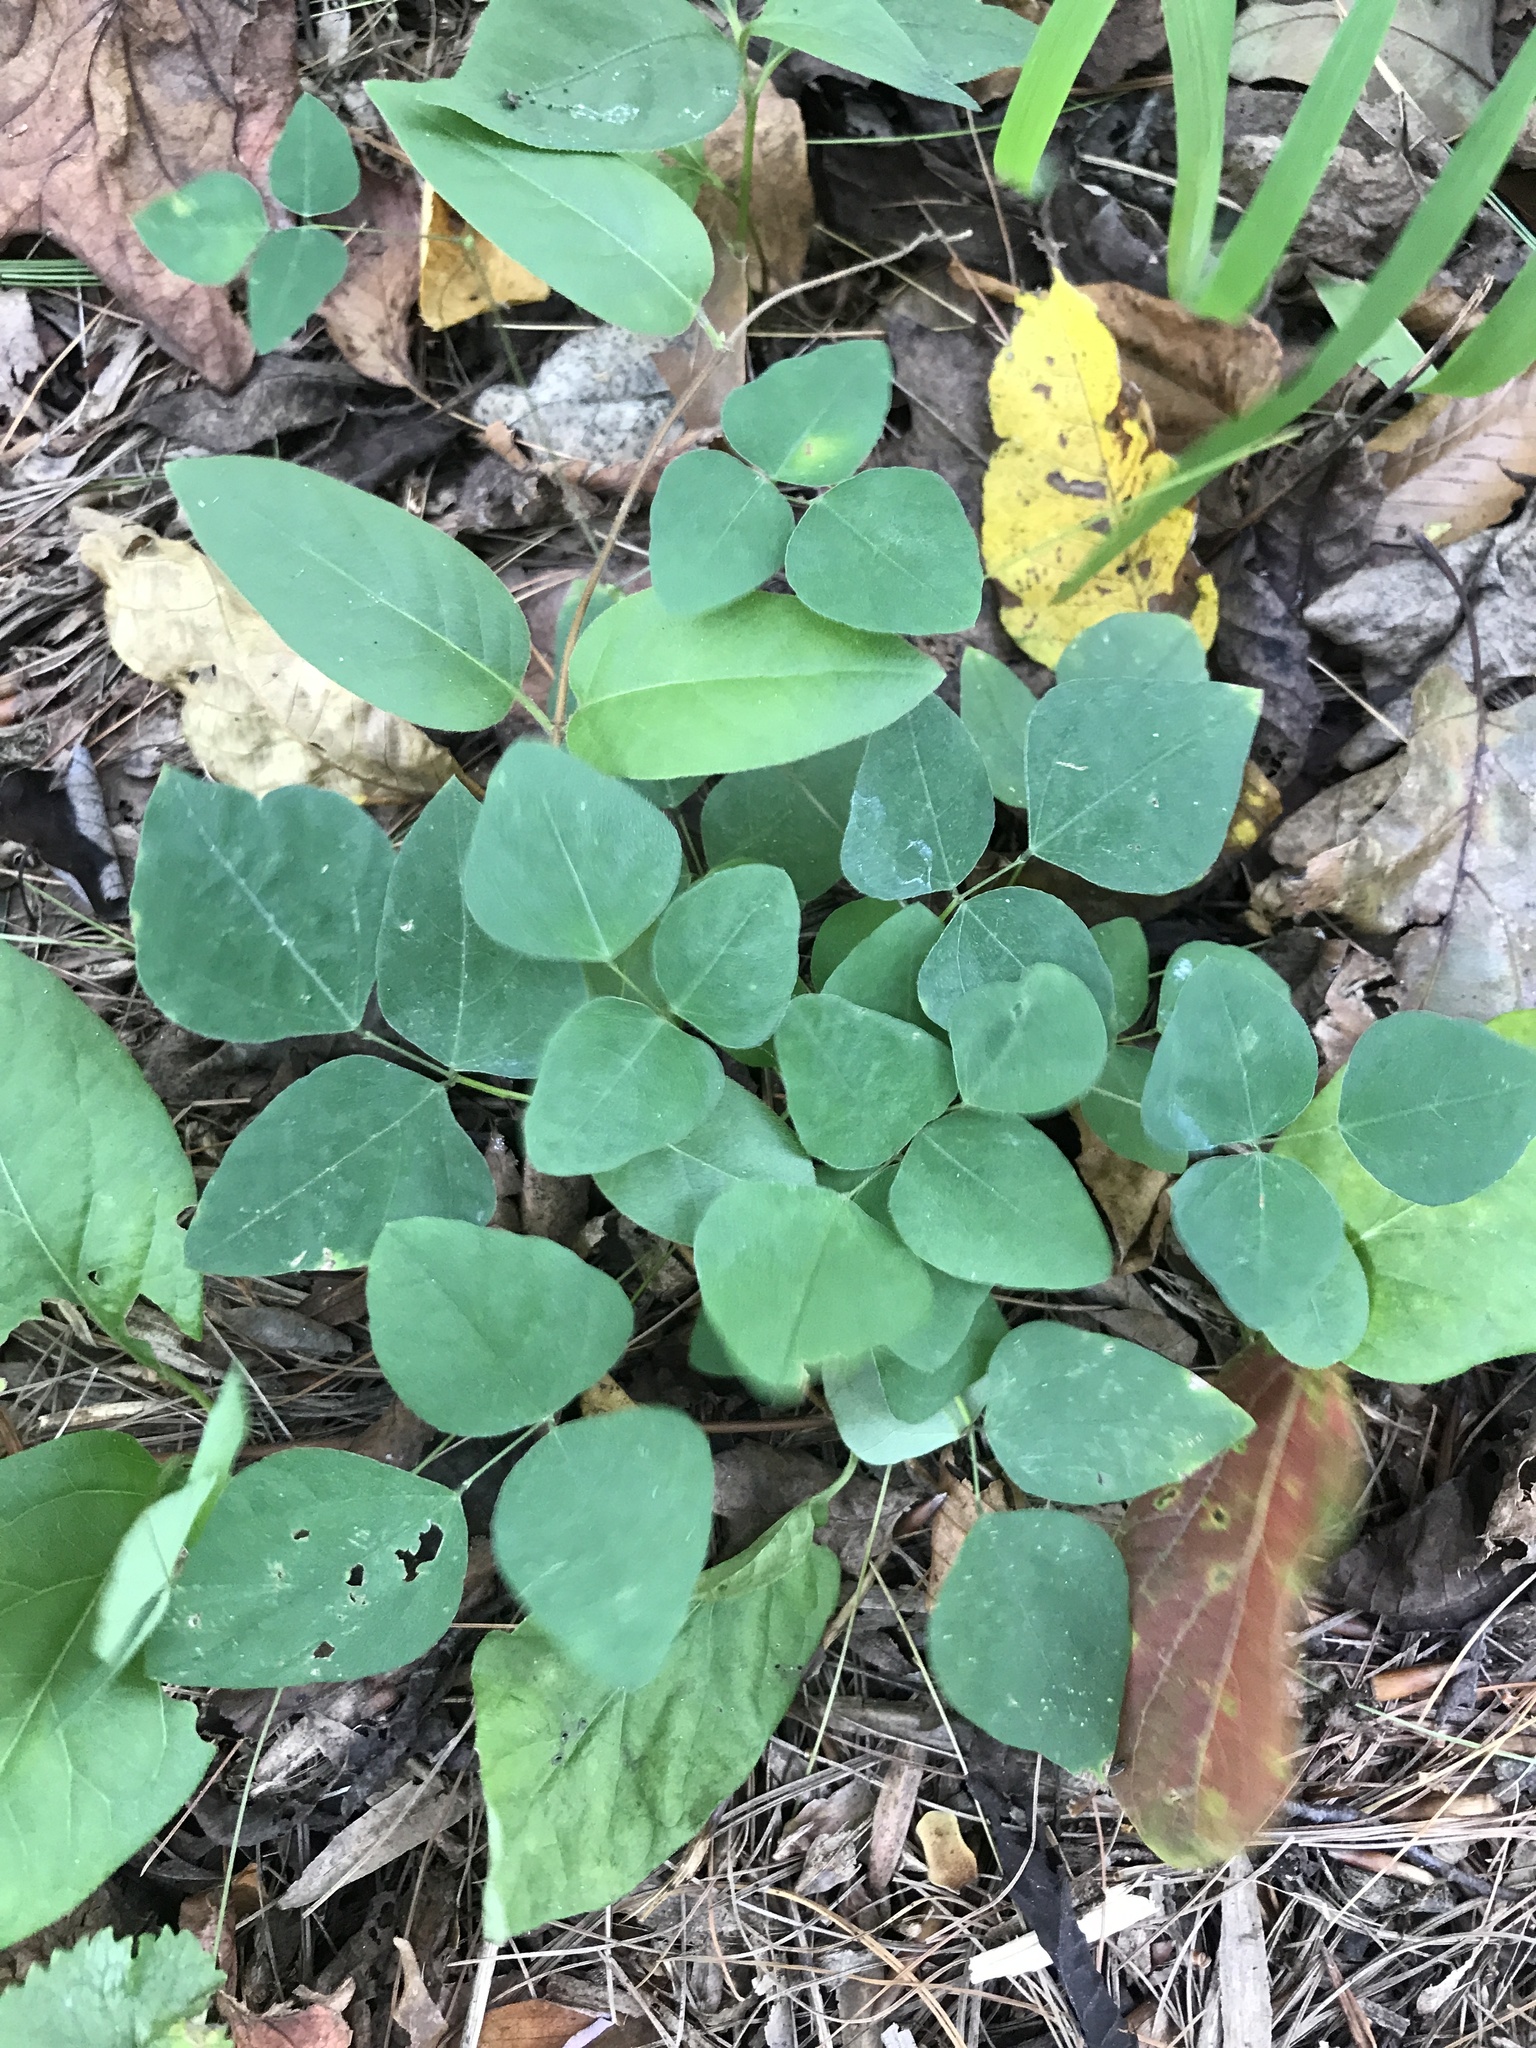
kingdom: Plantae
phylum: Tracheophyta
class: Magnoliopsida
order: Fabales
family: Fabaceae
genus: Amphicarpaea
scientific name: Amphicarpaea bracteata
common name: American hog peanut
